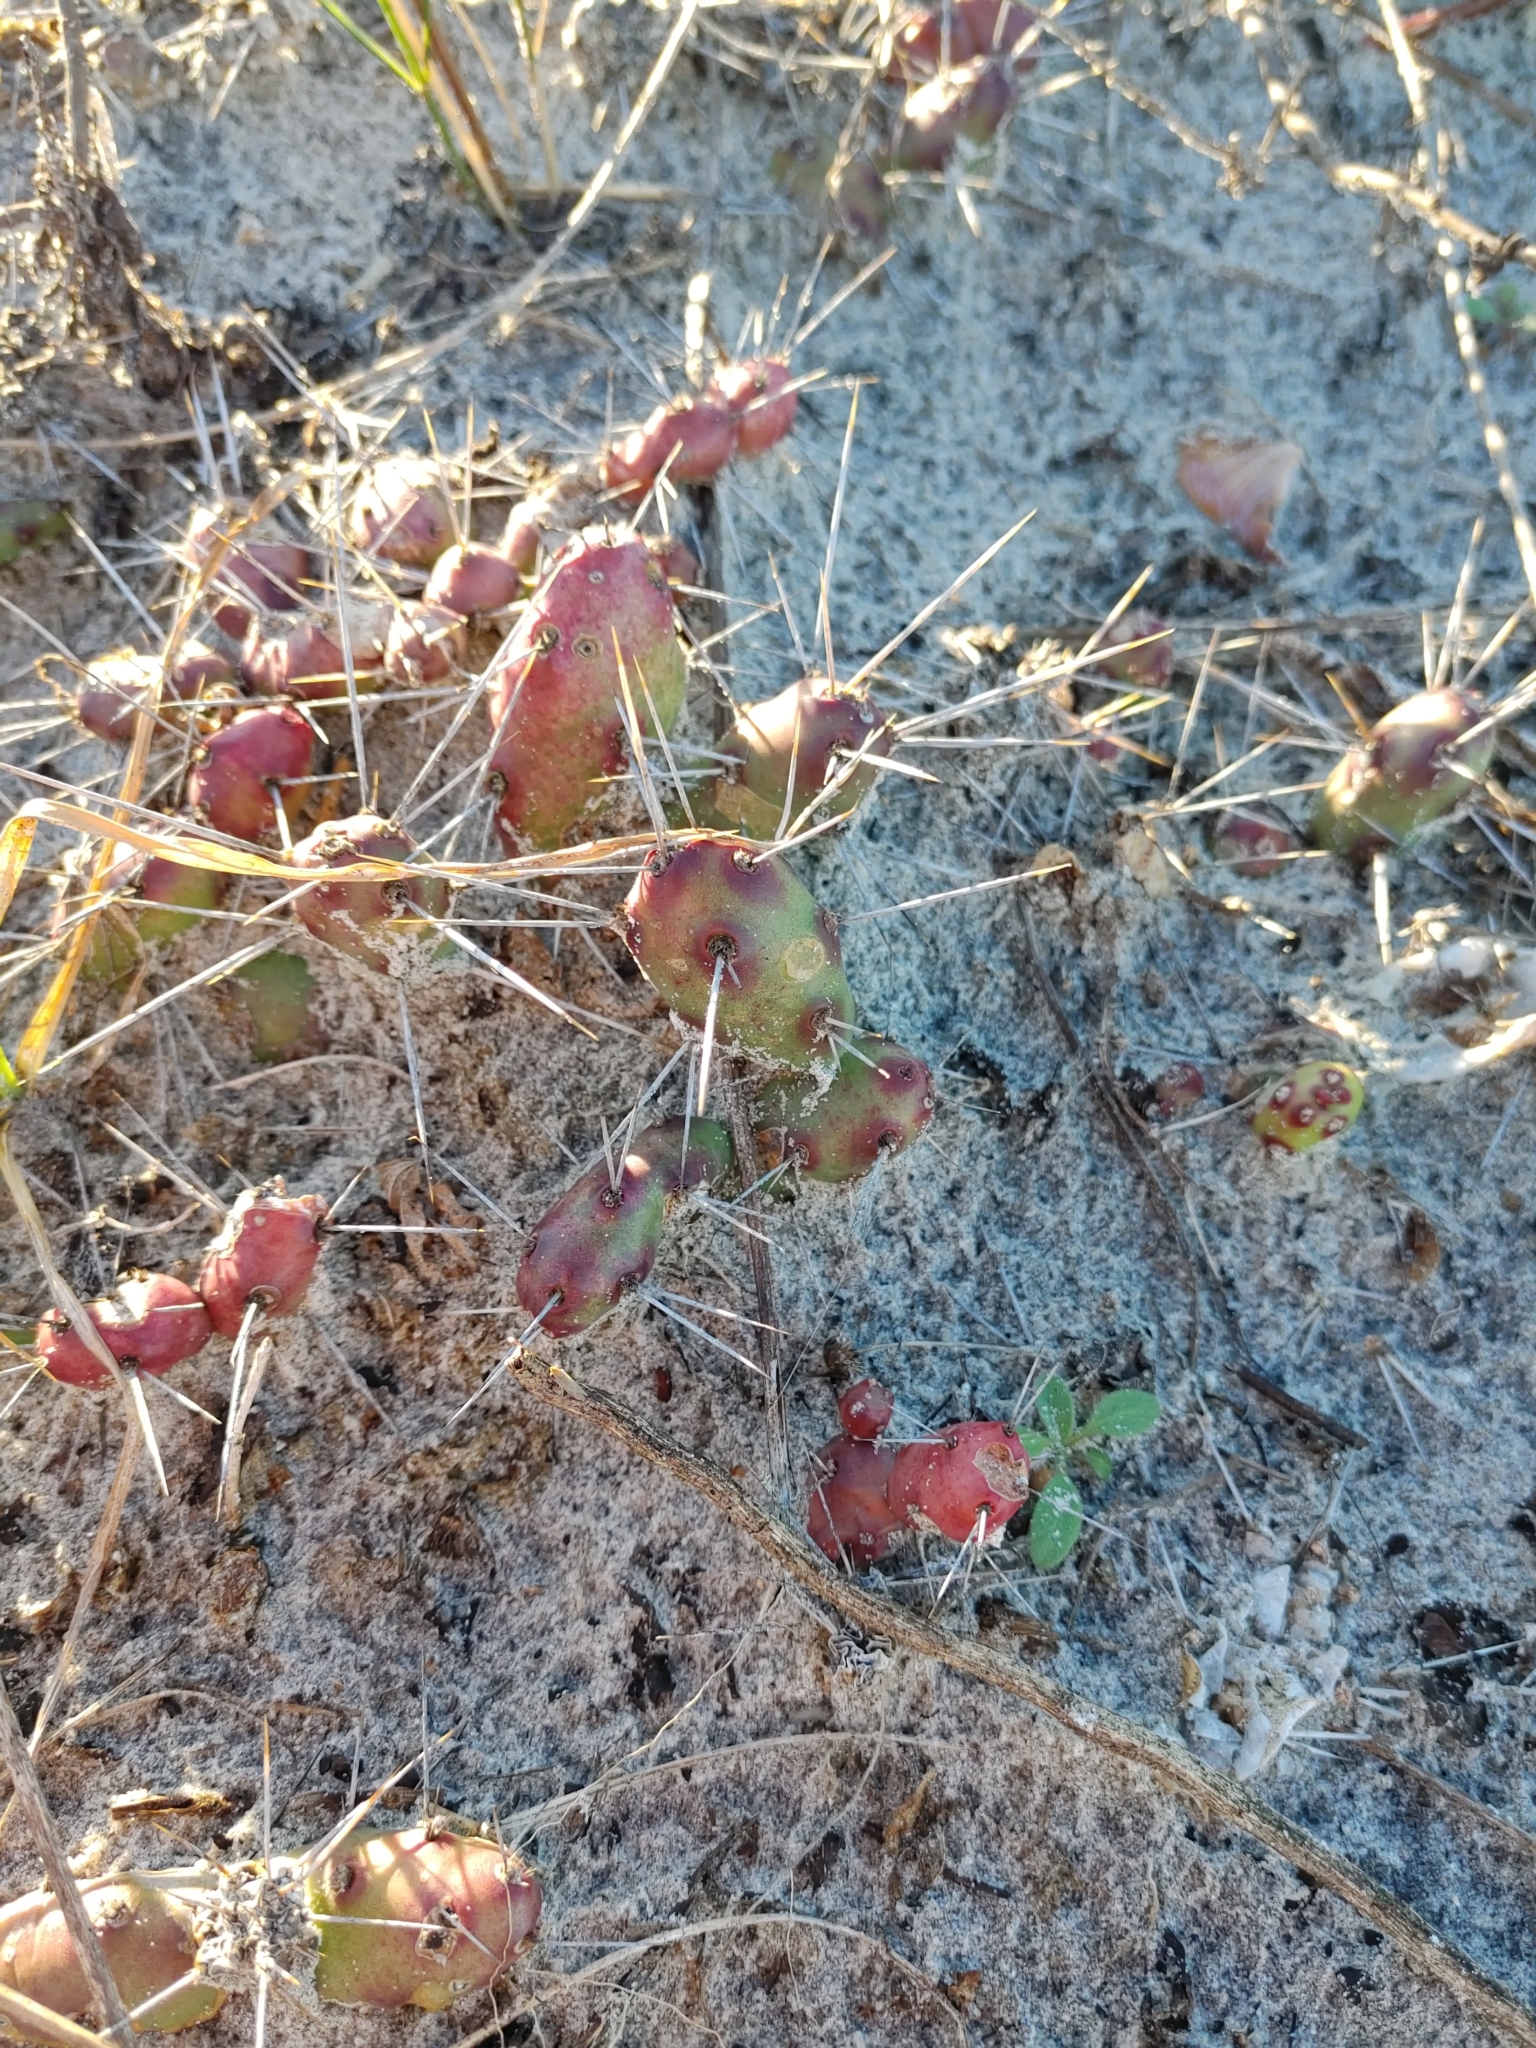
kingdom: Plantae
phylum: Tracheophyta
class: Magnoliopsida
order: Caryophyllales
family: Cactaceae
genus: Opuntia
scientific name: Opuntia drummondii
